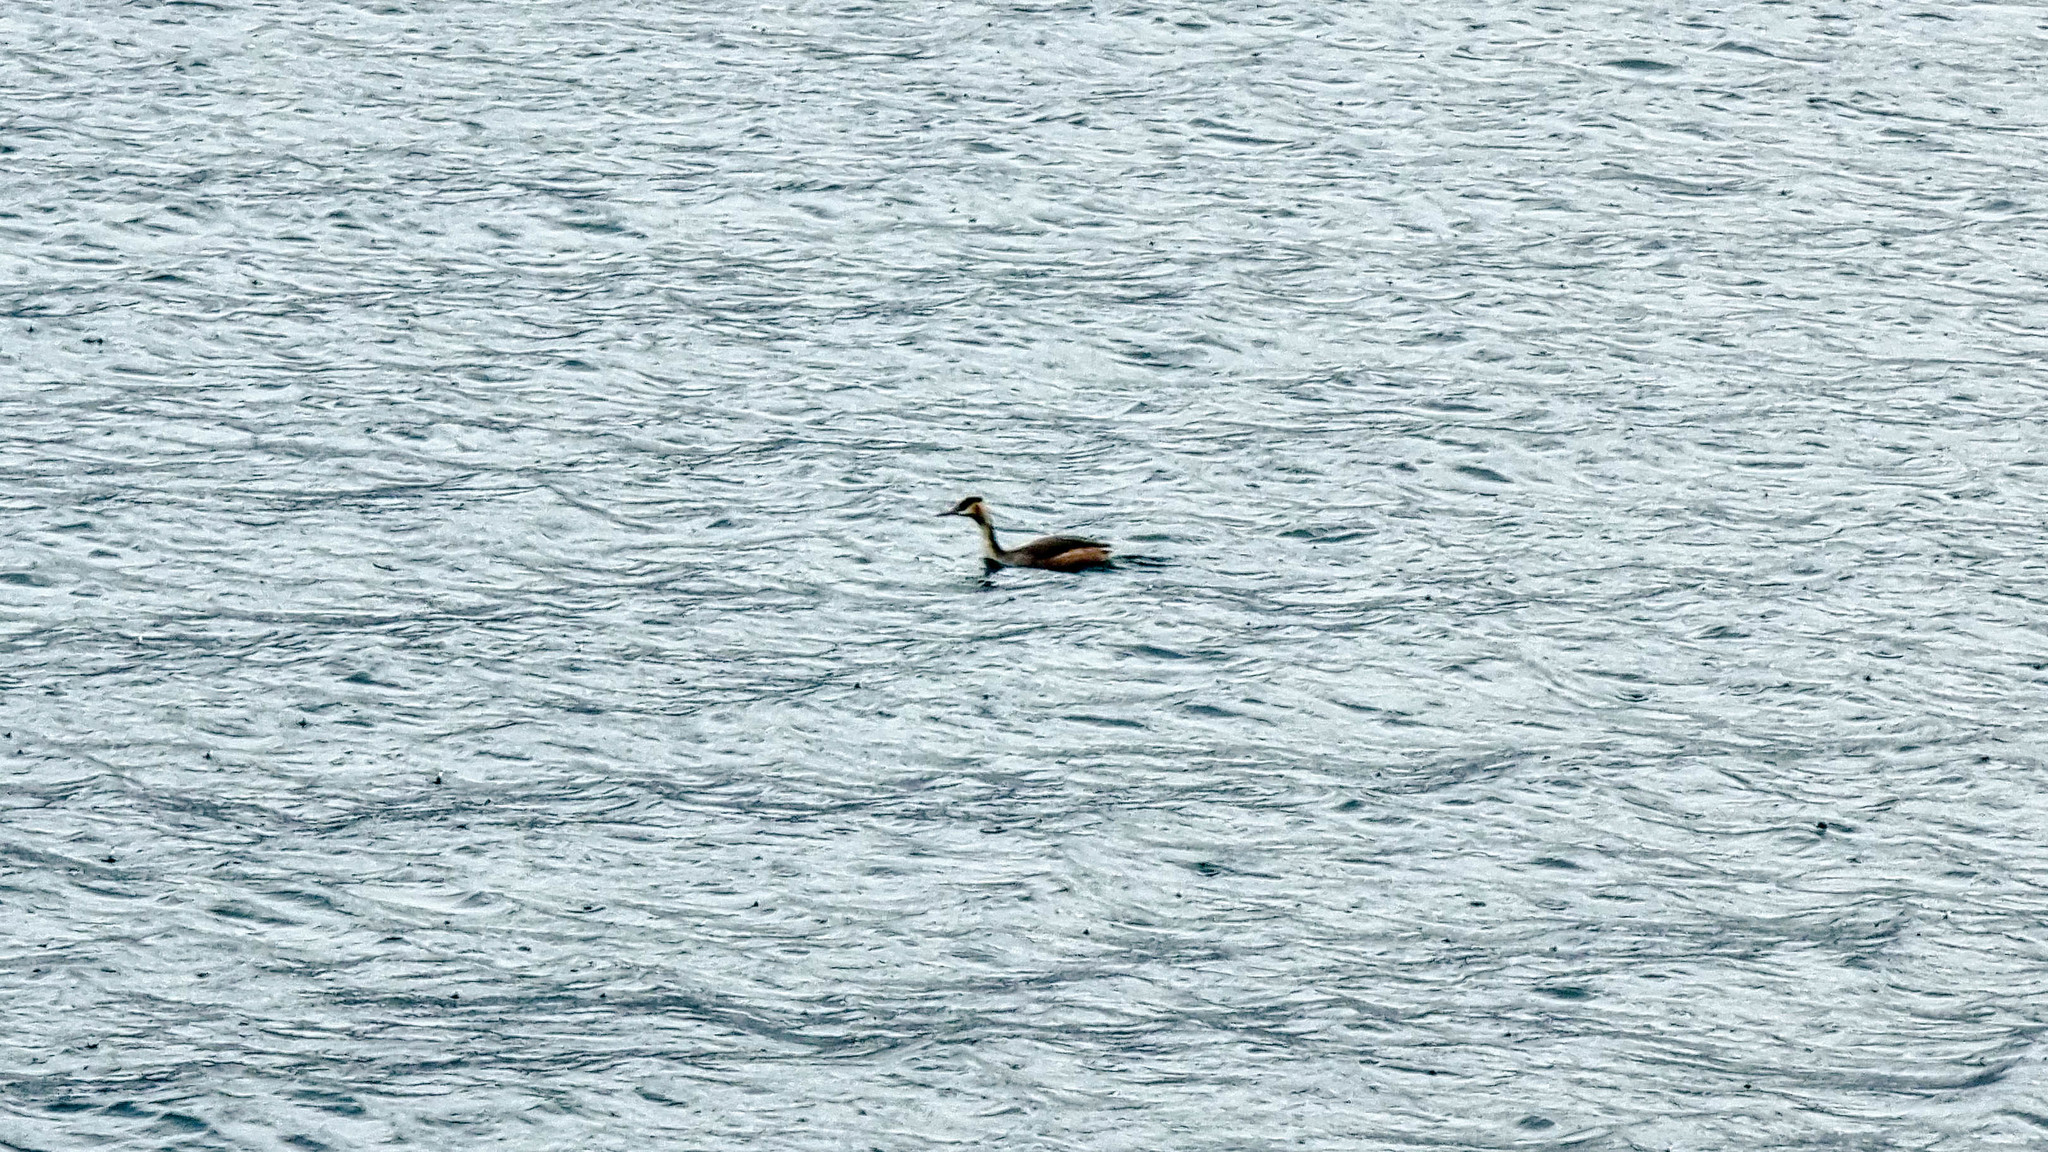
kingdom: Animalia
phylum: Chordata
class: Aves
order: Podicipediformes
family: Podicipedidae
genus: Podiceps
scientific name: Podiceps cristatus
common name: Great crested grebe
